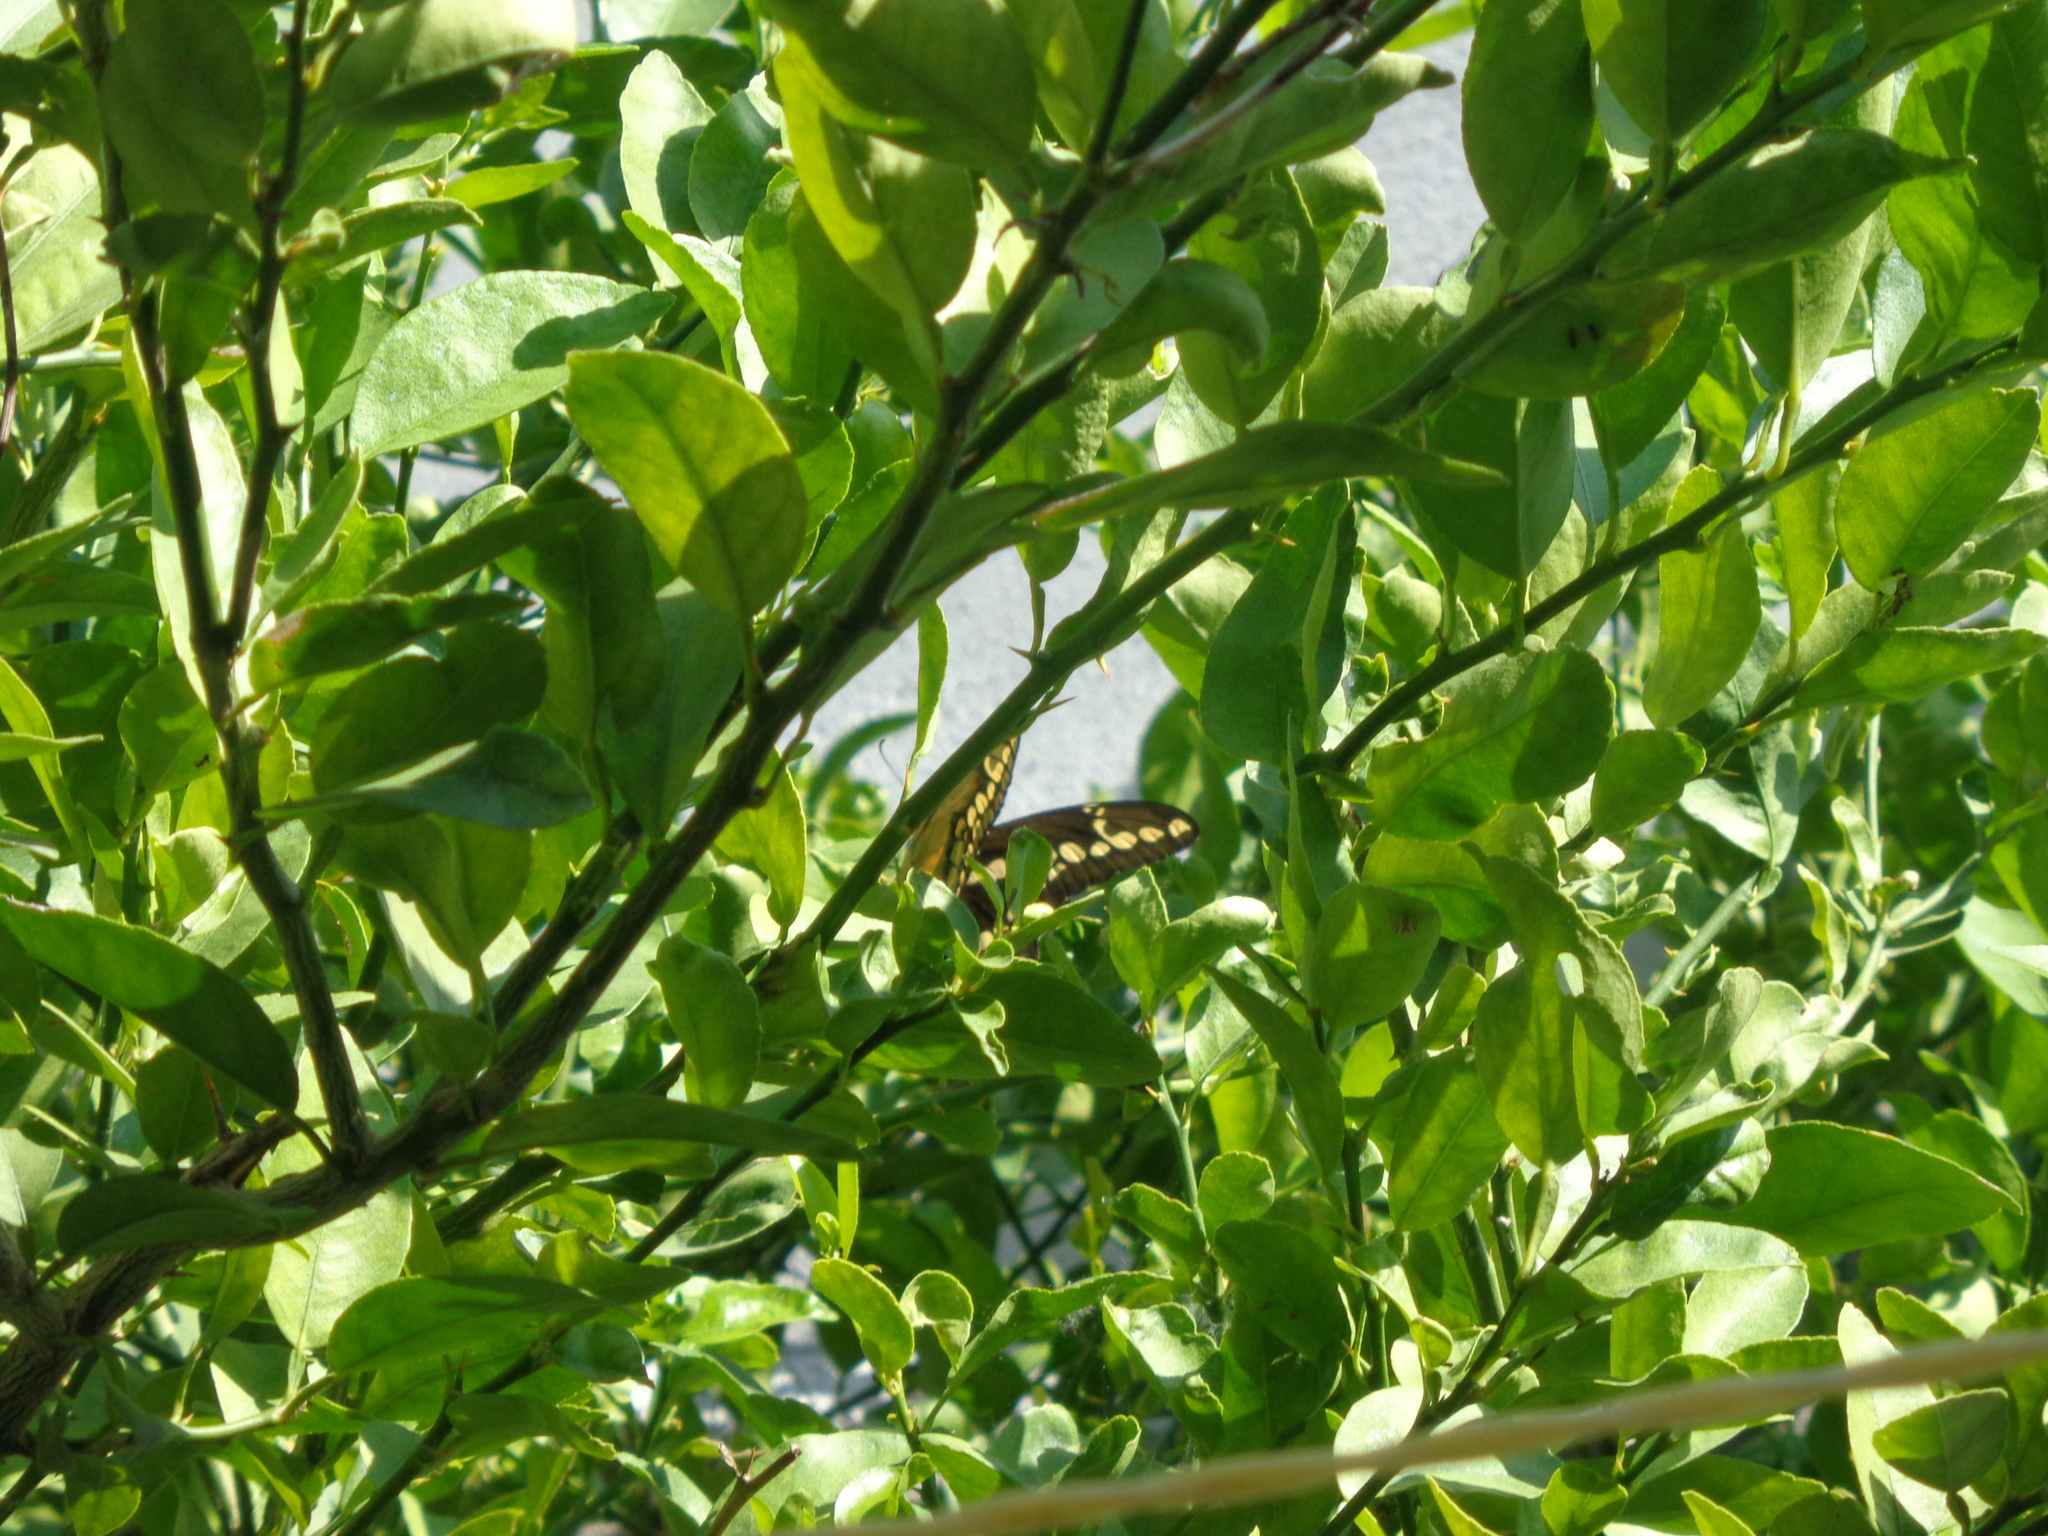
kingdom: Animalia
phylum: Arthropoda
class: Insecta
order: Lepidoptera
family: Papilionidae
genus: Papilio
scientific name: Papilio rumiko
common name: Western giant swallowtail
